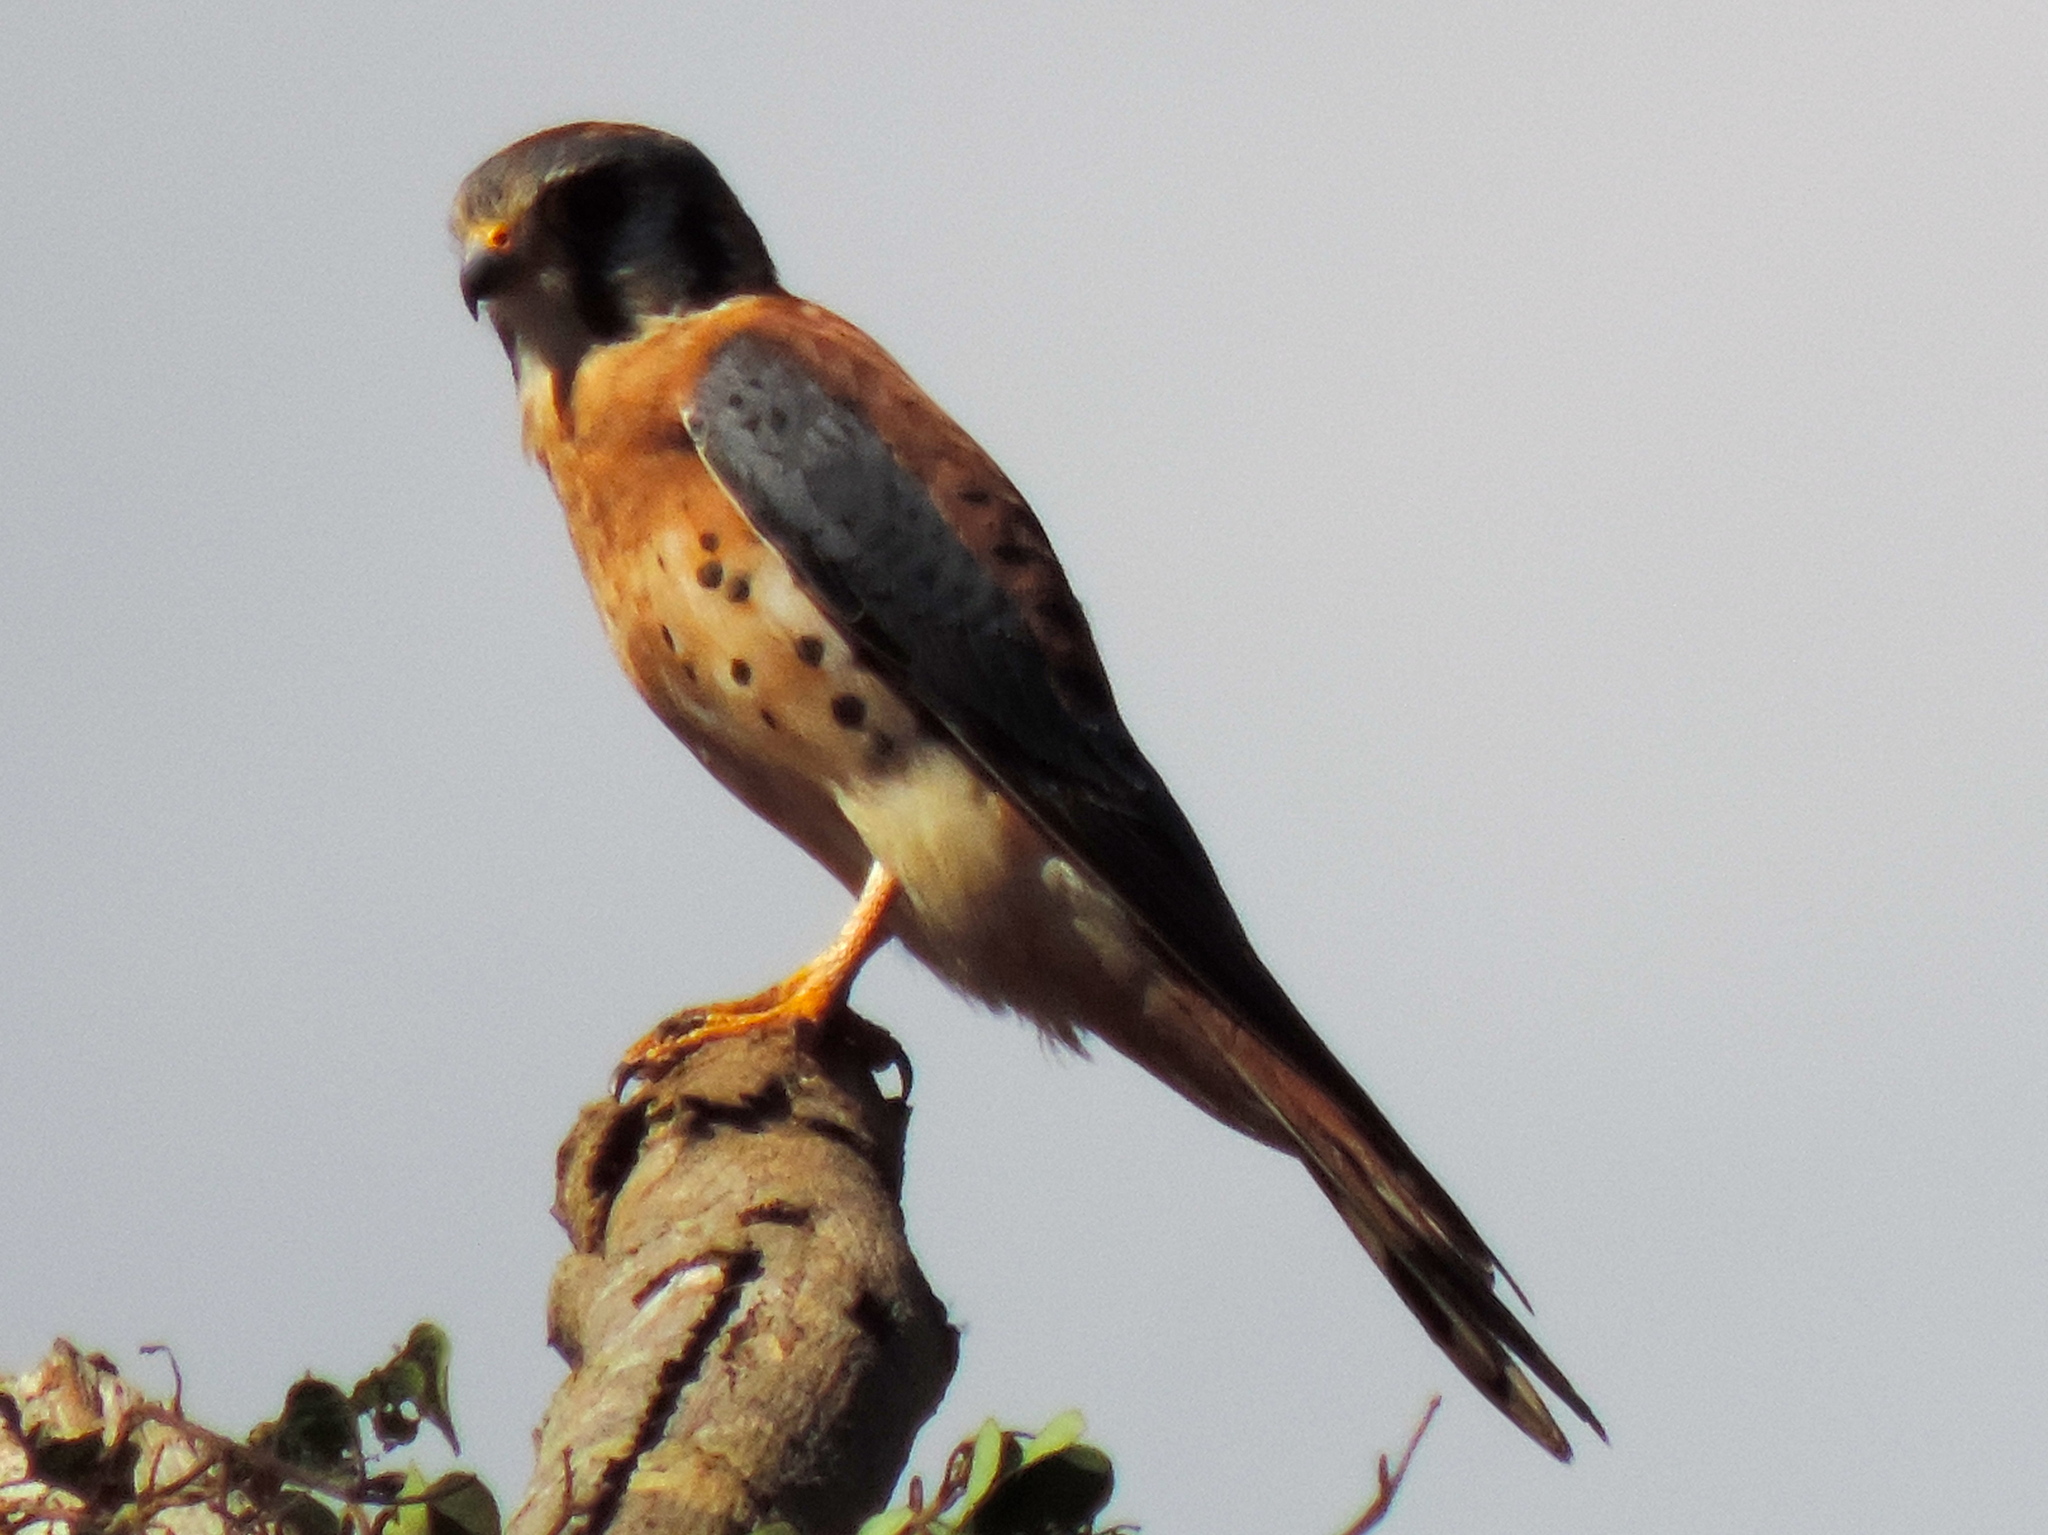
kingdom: Animalia
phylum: Chordata
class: Aves
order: Falconiformes
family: Falconidae
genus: Falco
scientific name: Falco sparverius
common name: American kestrel
